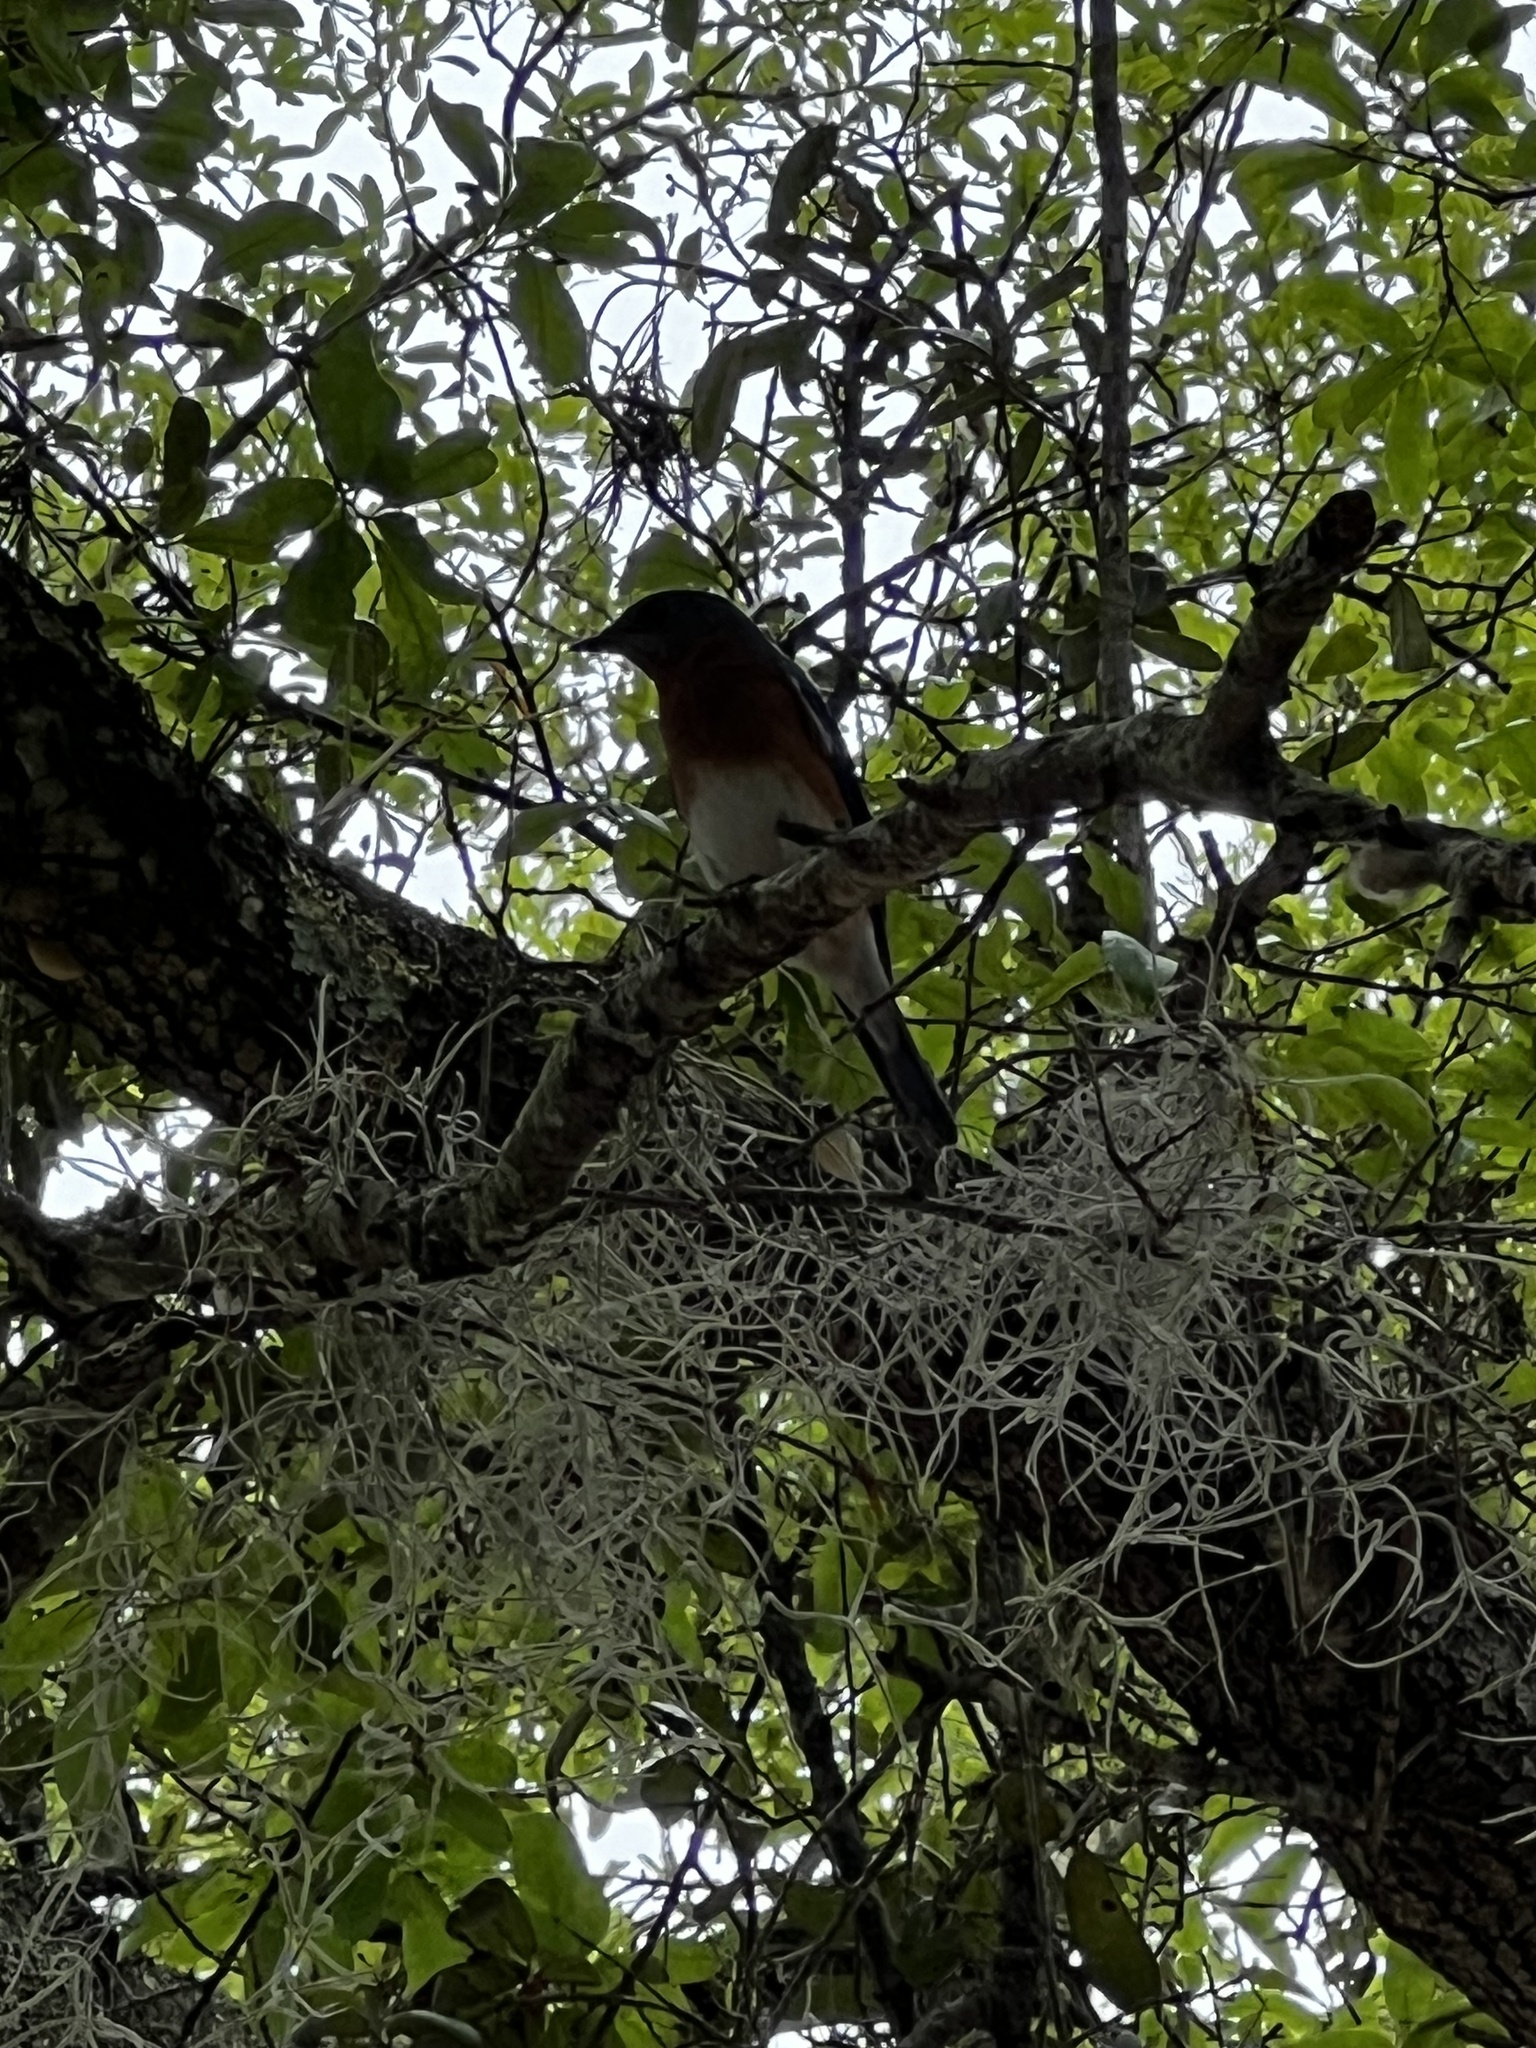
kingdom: Animalia
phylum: Chordata
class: Aves
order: Passeriformes
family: Turdidae
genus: Sialia
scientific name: Sialia sialis
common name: Eastern bluebird
